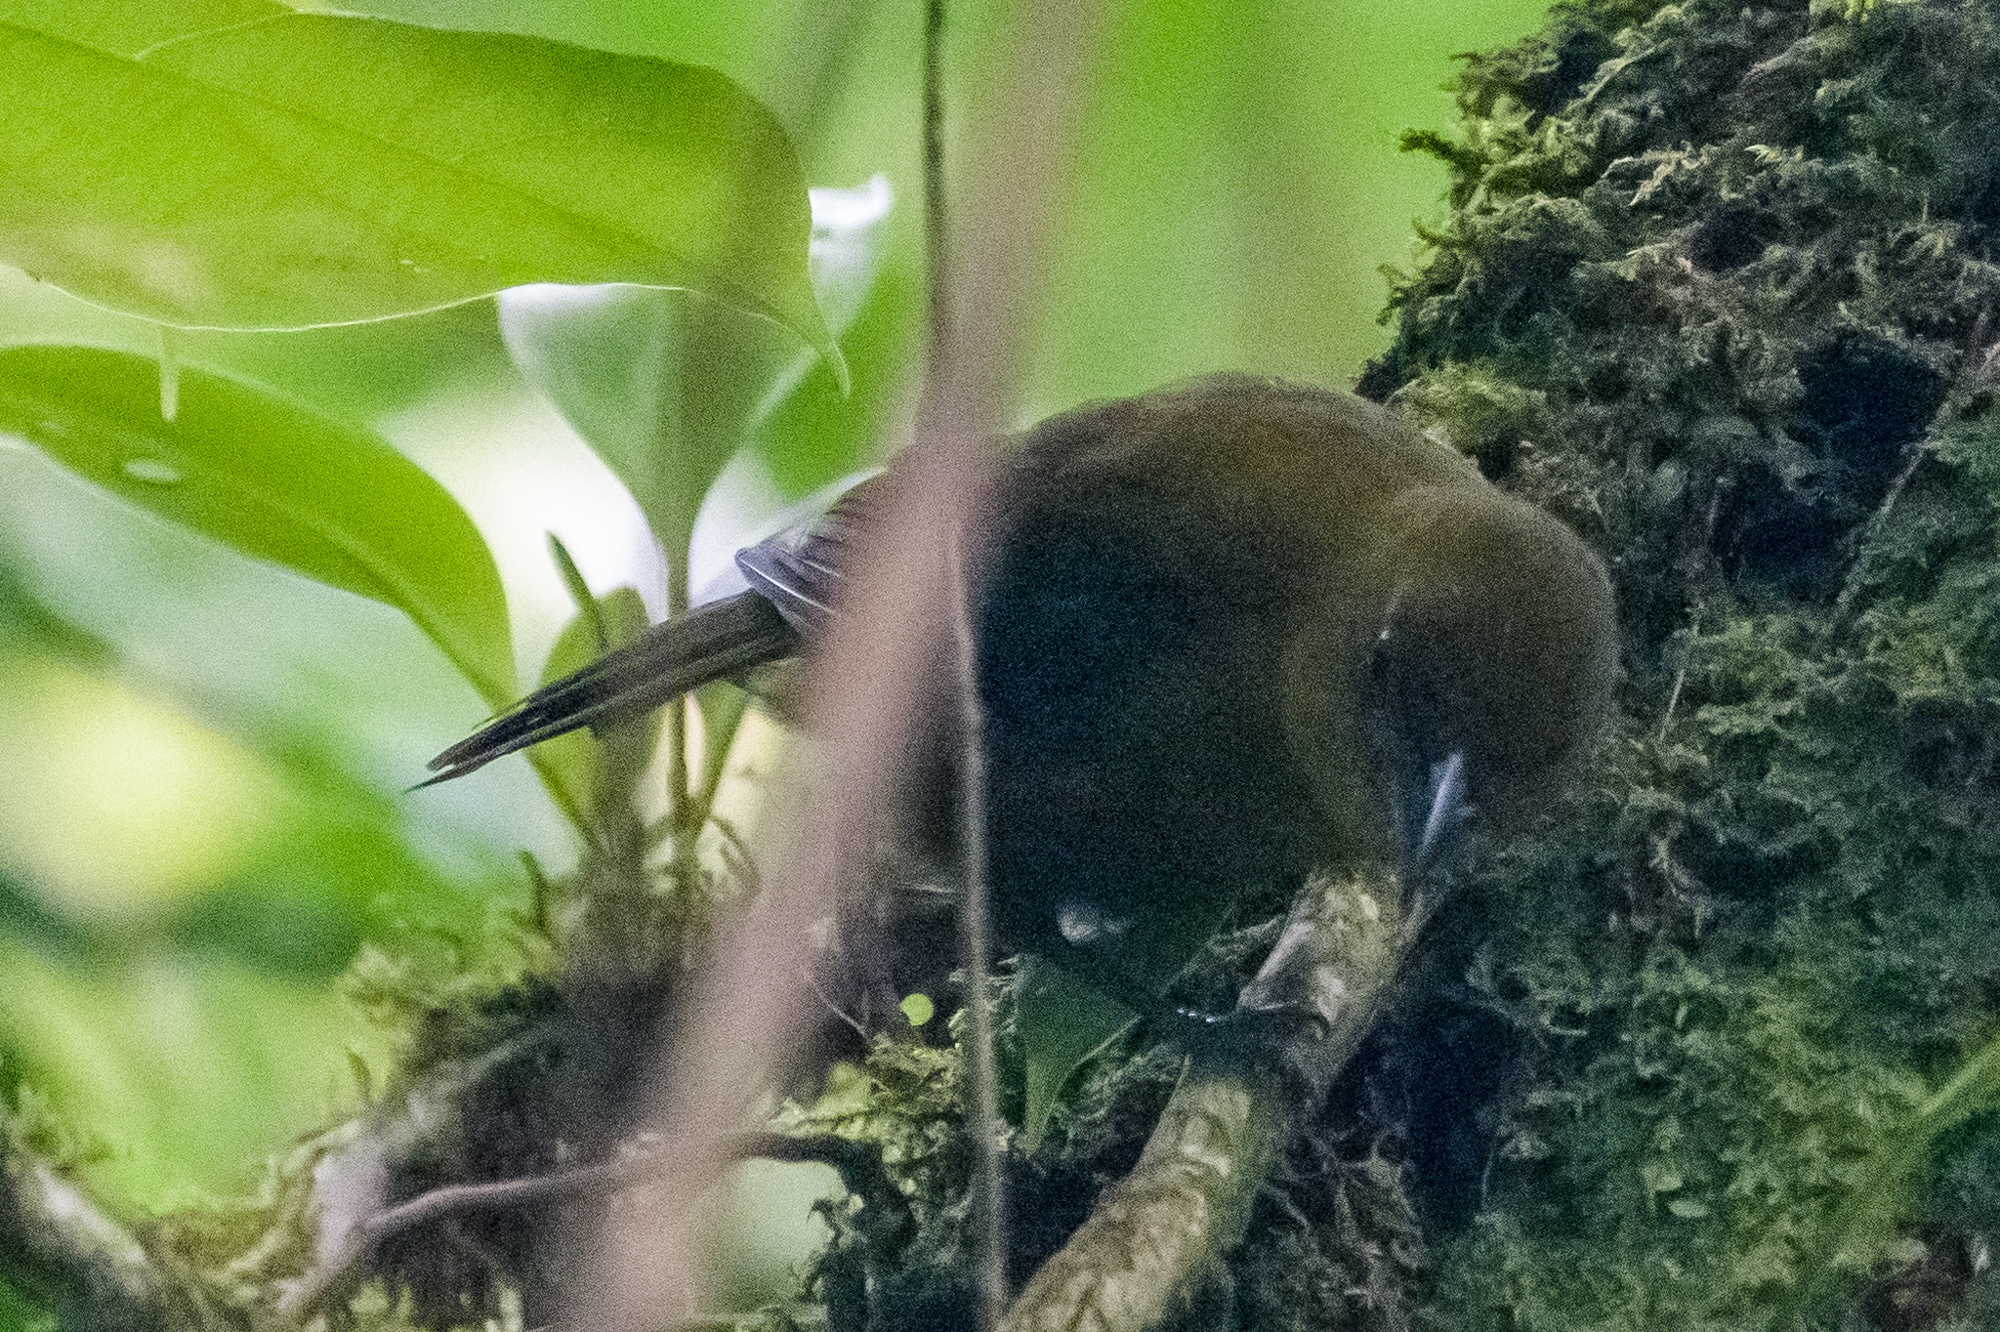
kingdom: Animalia
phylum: Chordata
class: Aves
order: Passeriformes
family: Cardinalidae
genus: Chlorothraupis
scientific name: Chlorothraupis carmioli
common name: Carmiol's tanager
